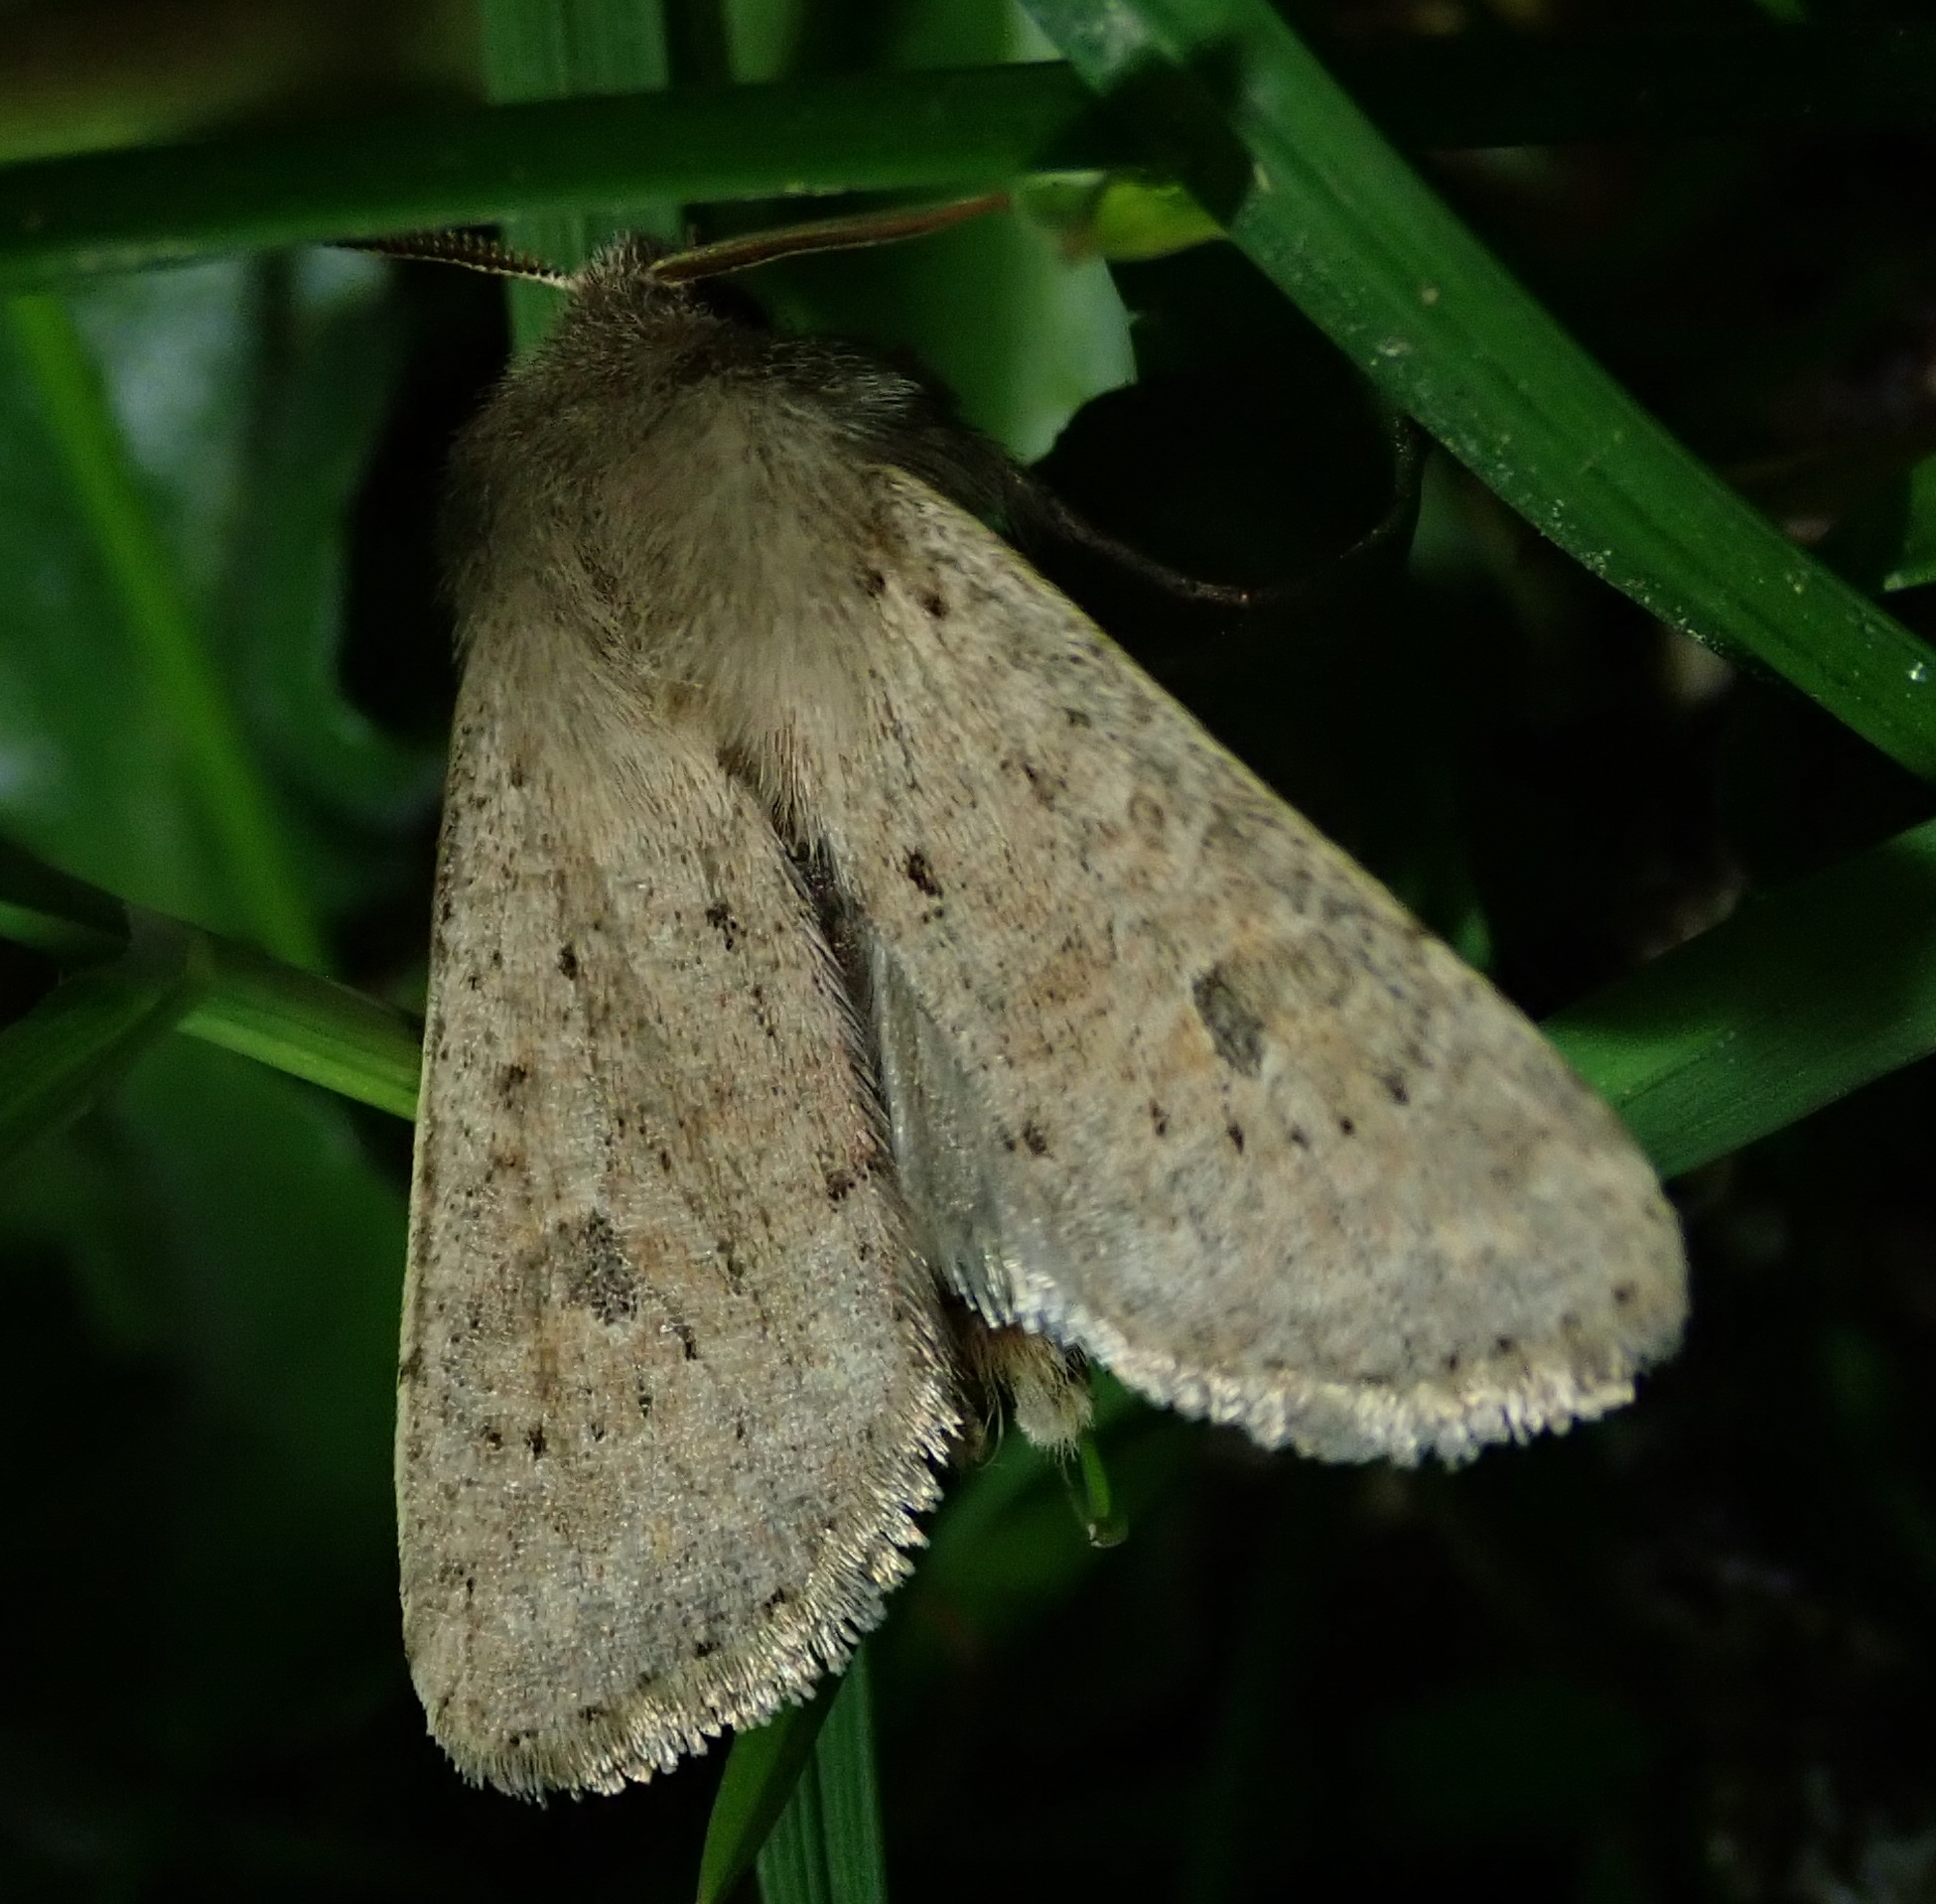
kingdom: Animalia
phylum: Arthropoda
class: Insecta
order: Lepidoptera
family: Noctuidae
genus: Orthosia
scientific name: Orthosia cruda
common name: Small quaker
